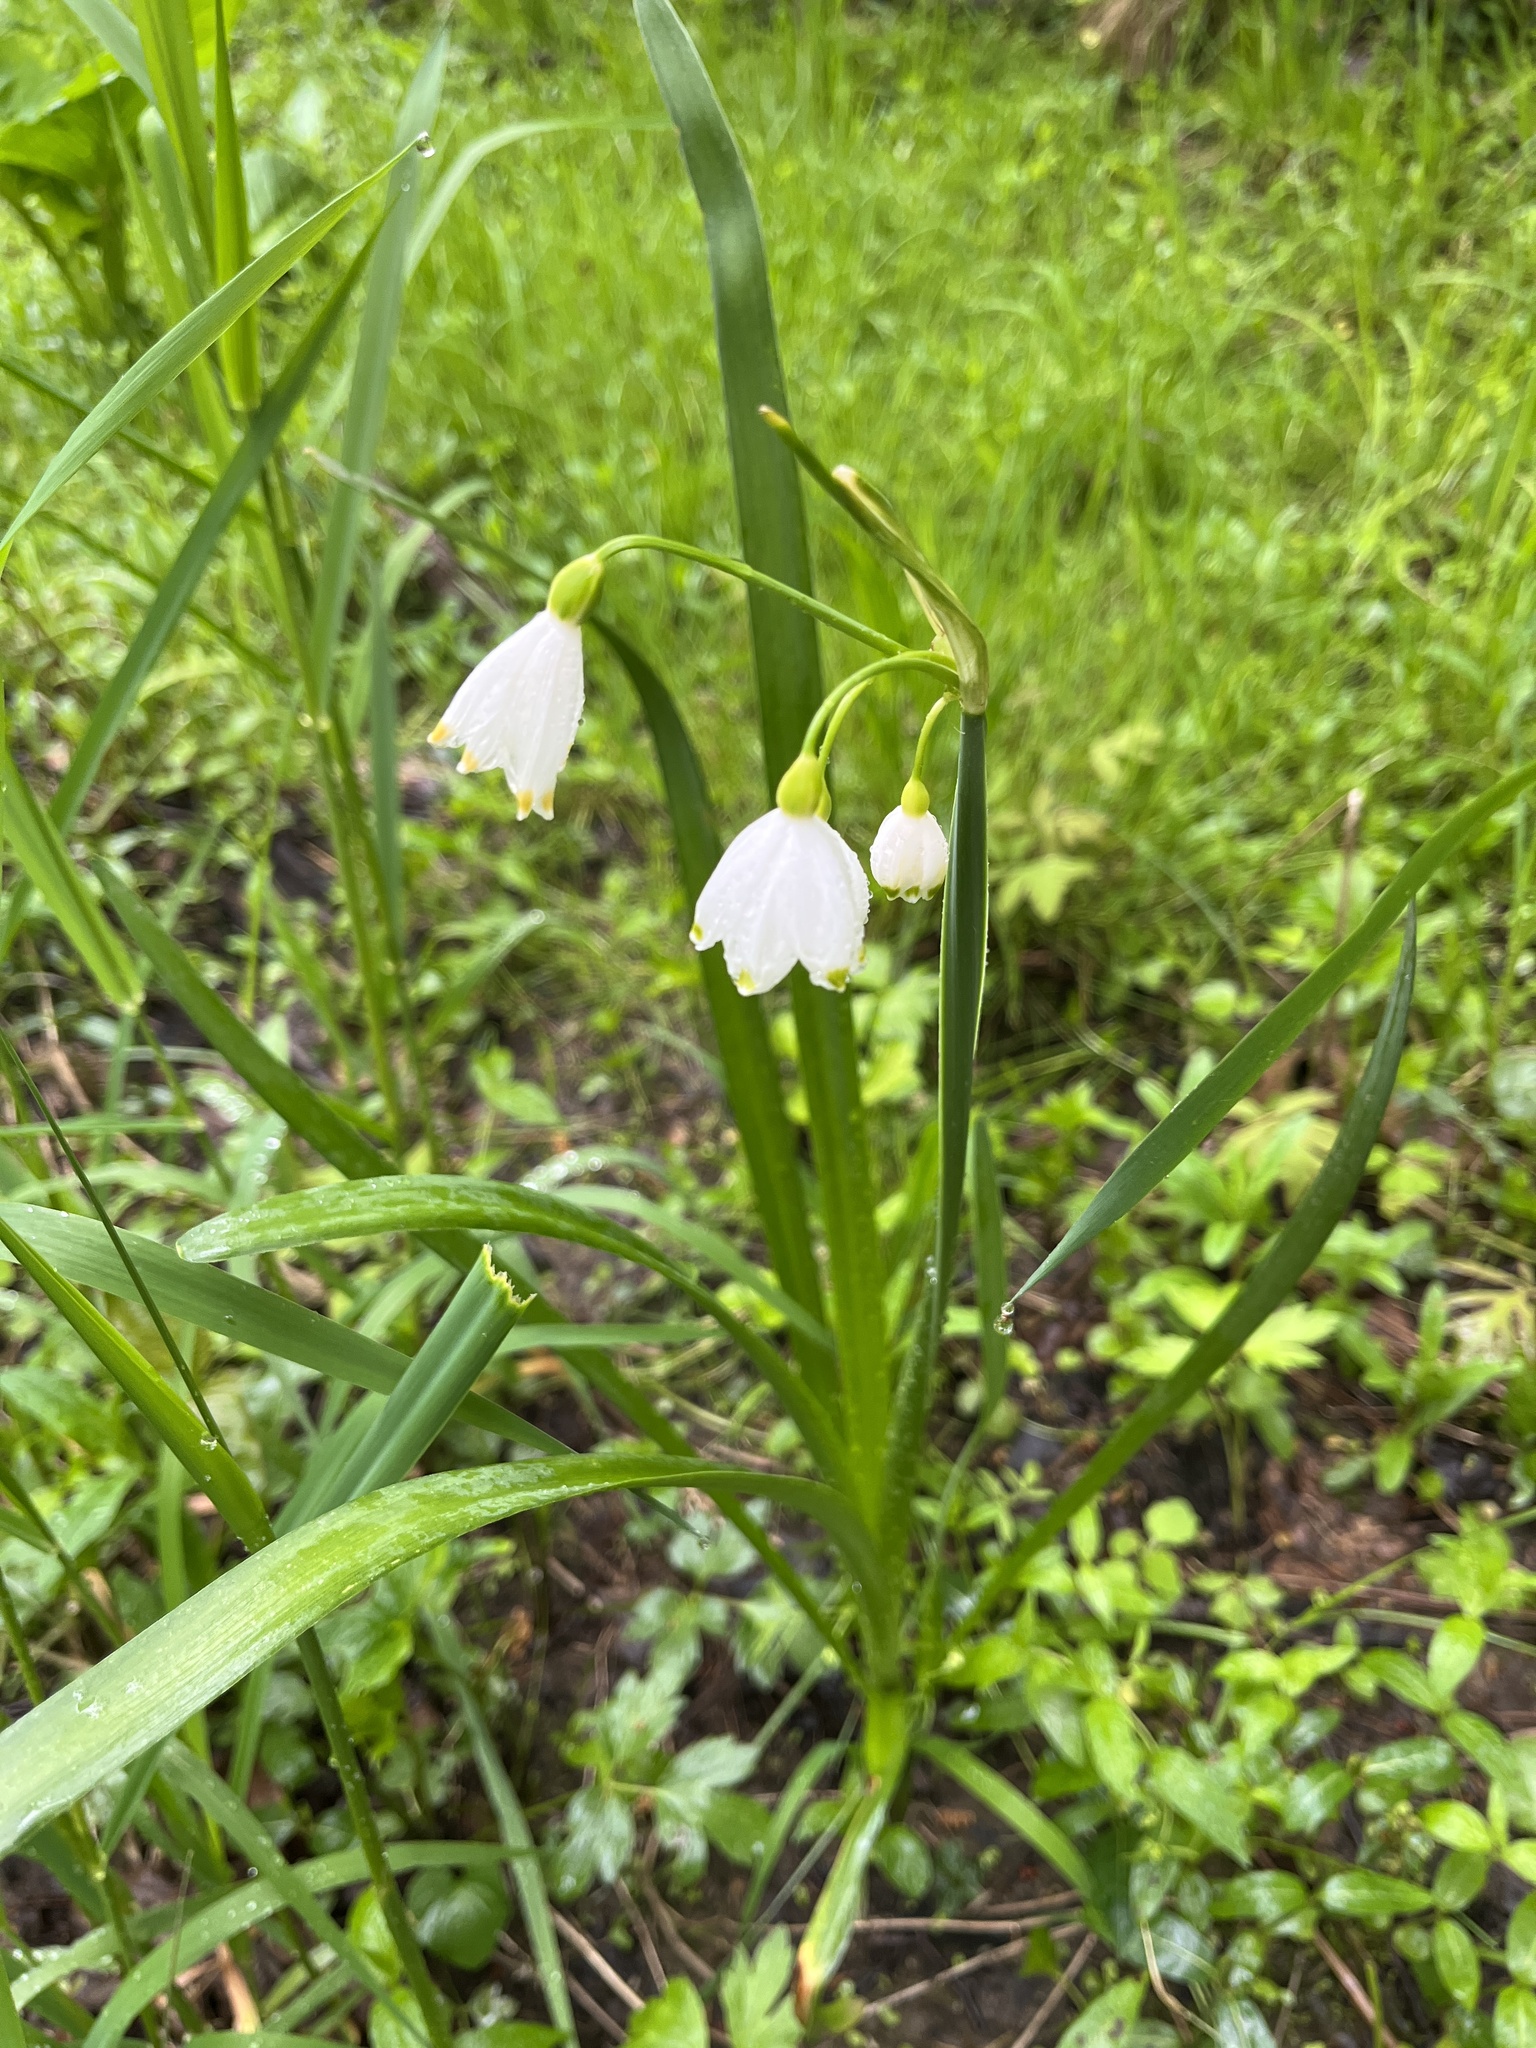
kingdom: Plantae
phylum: Tracheophyta
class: Liliopsida
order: Asparagales
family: Amaryllidaceae
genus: Leucojum
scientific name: Leucojum aestivum
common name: Summer snowflake
